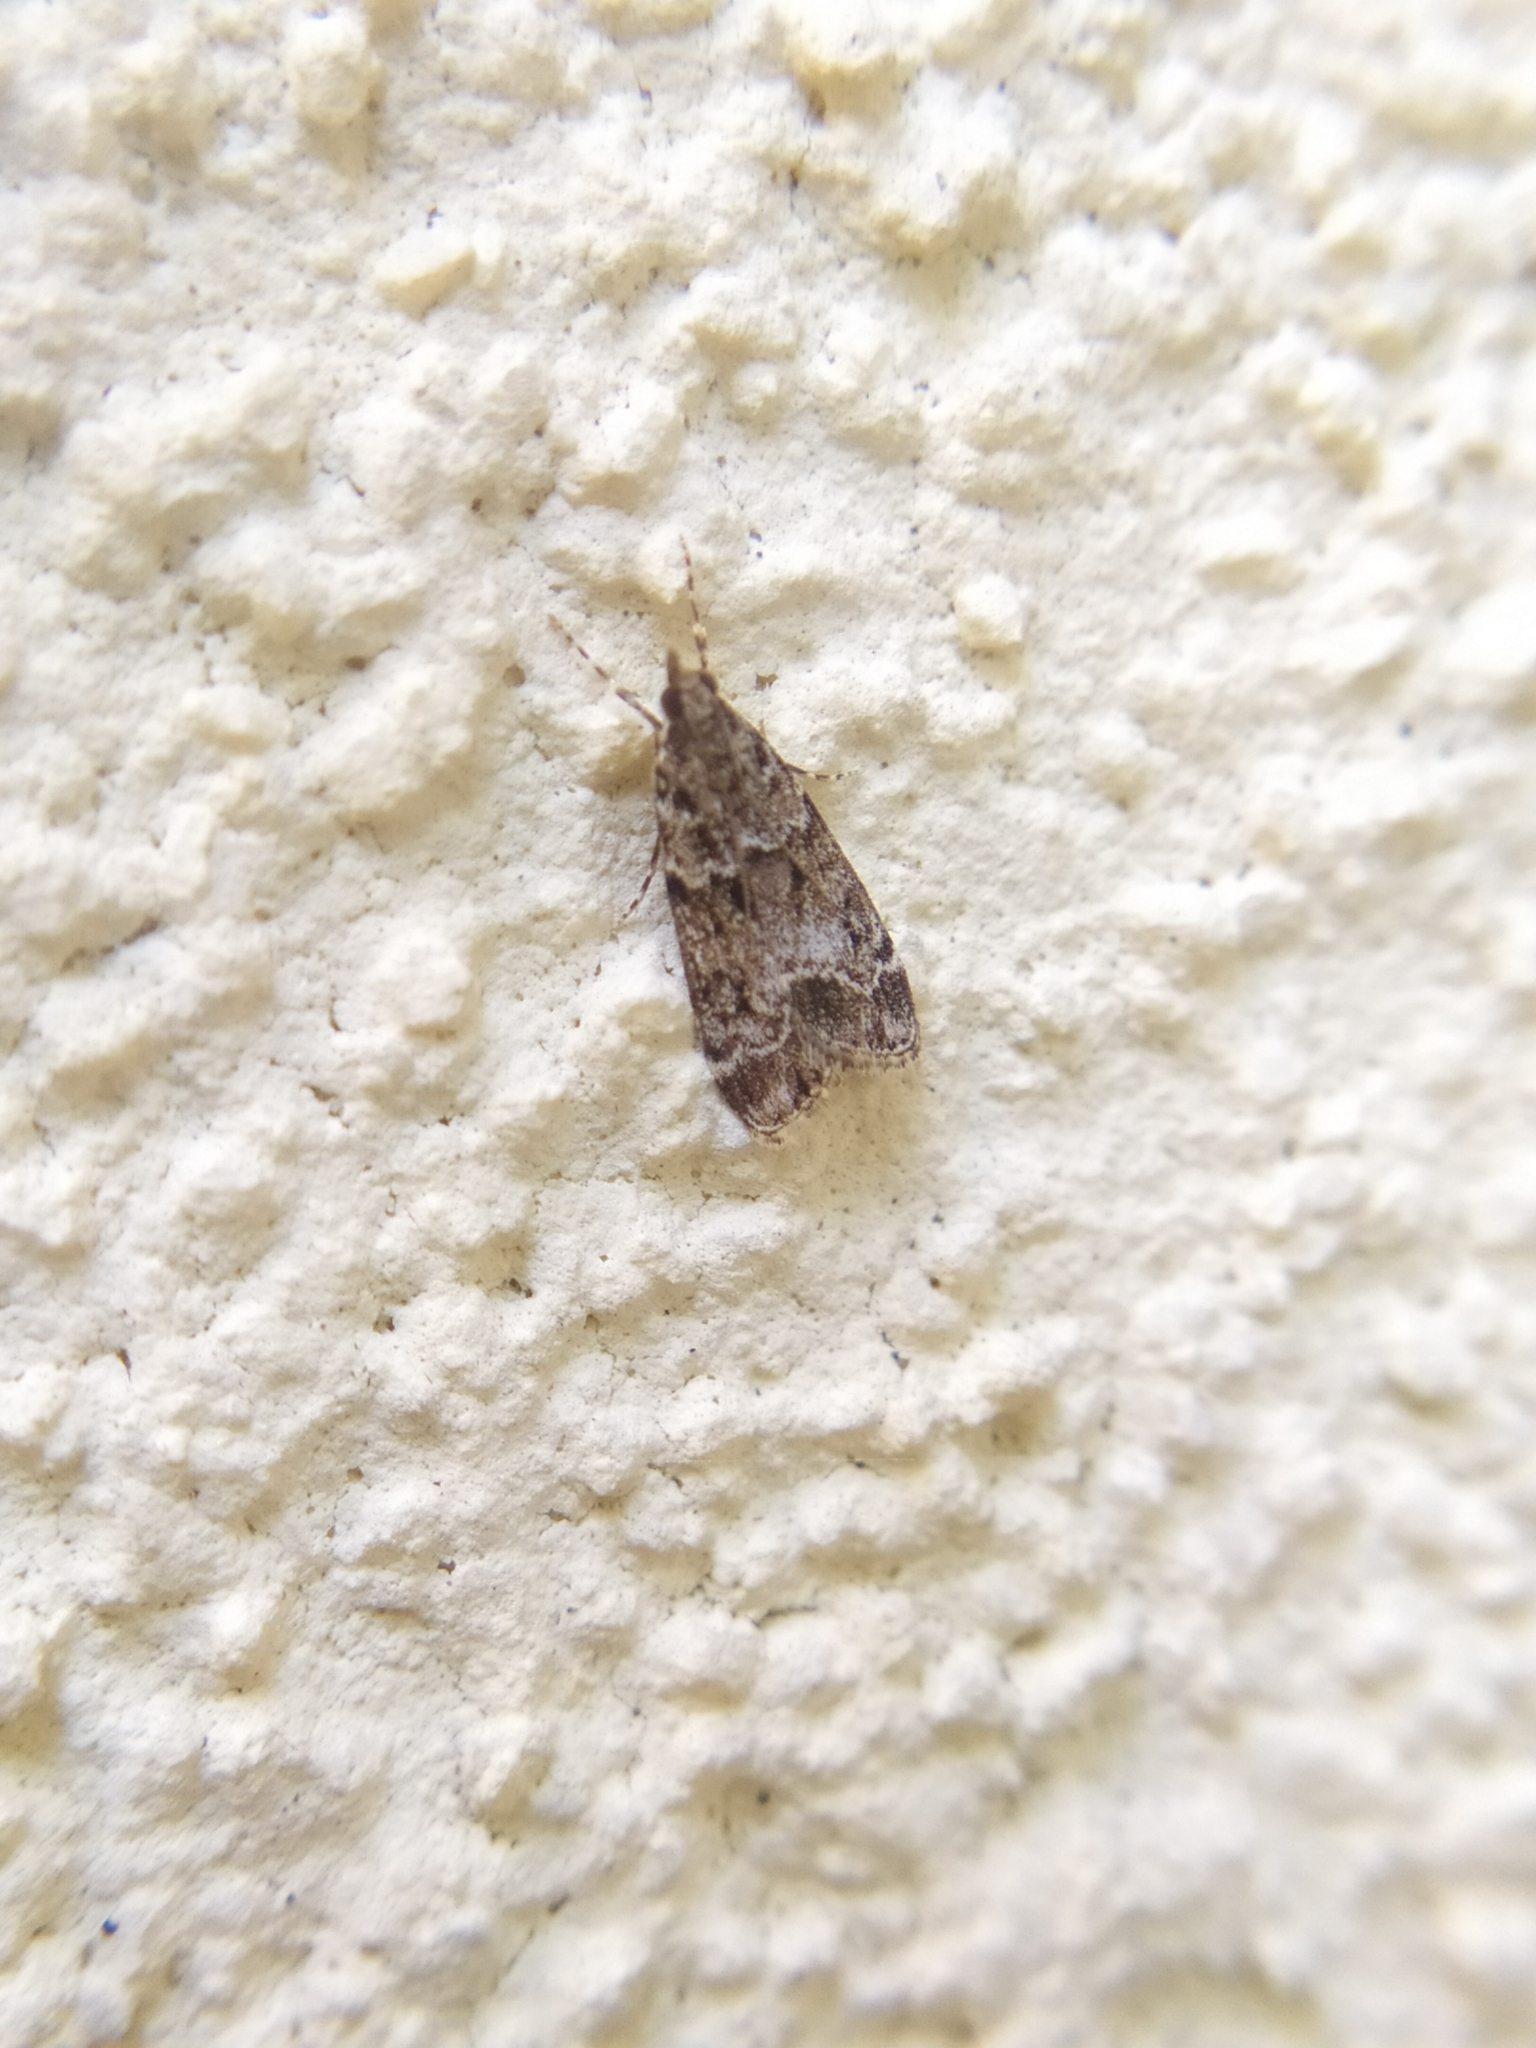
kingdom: Animalia
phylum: Arthropoda
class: Insecta
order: Lepidoptera
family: Crambidae
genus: Eudonia
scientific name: Eudonia mercurella
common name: Small grey
